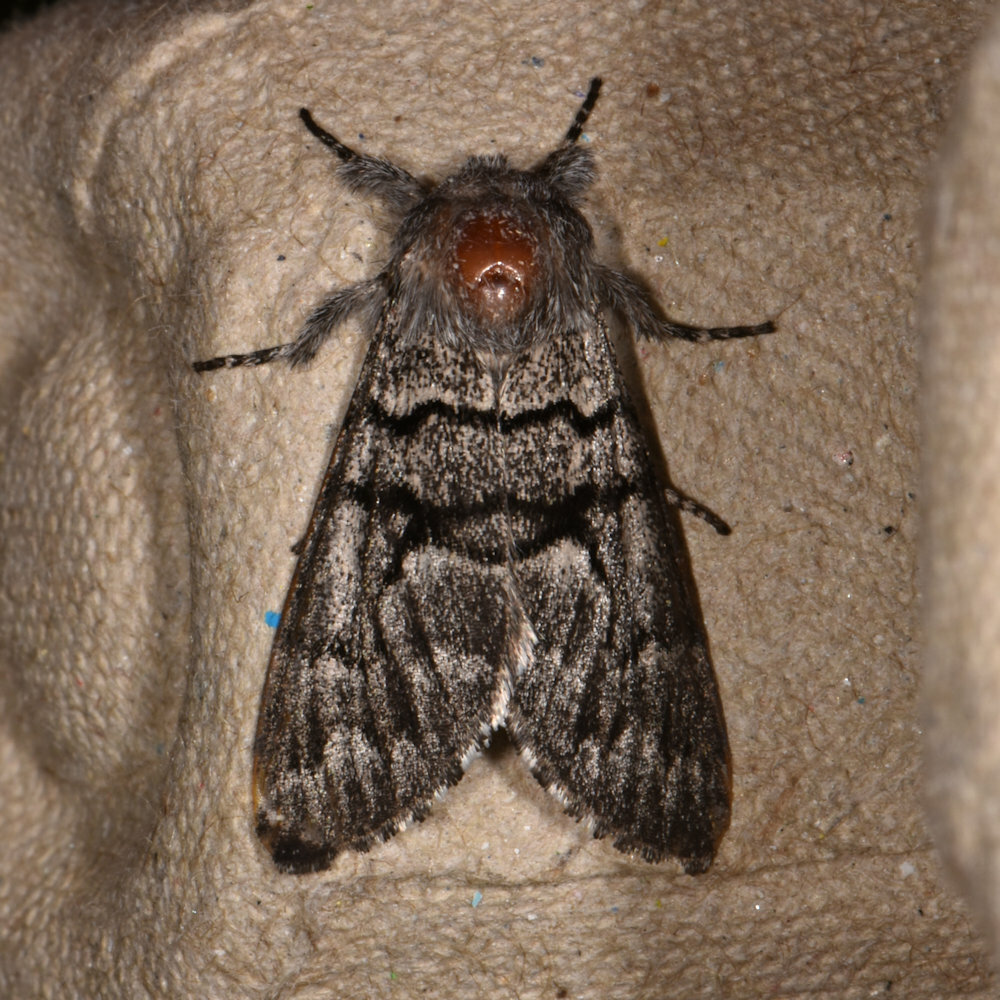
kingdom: Animalia
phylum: Arthropoda
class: Insecta
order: Lepidoptera
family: Noctuidae
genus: Panthea
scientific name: Panthea furcilla
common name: Eastern panthea moth
